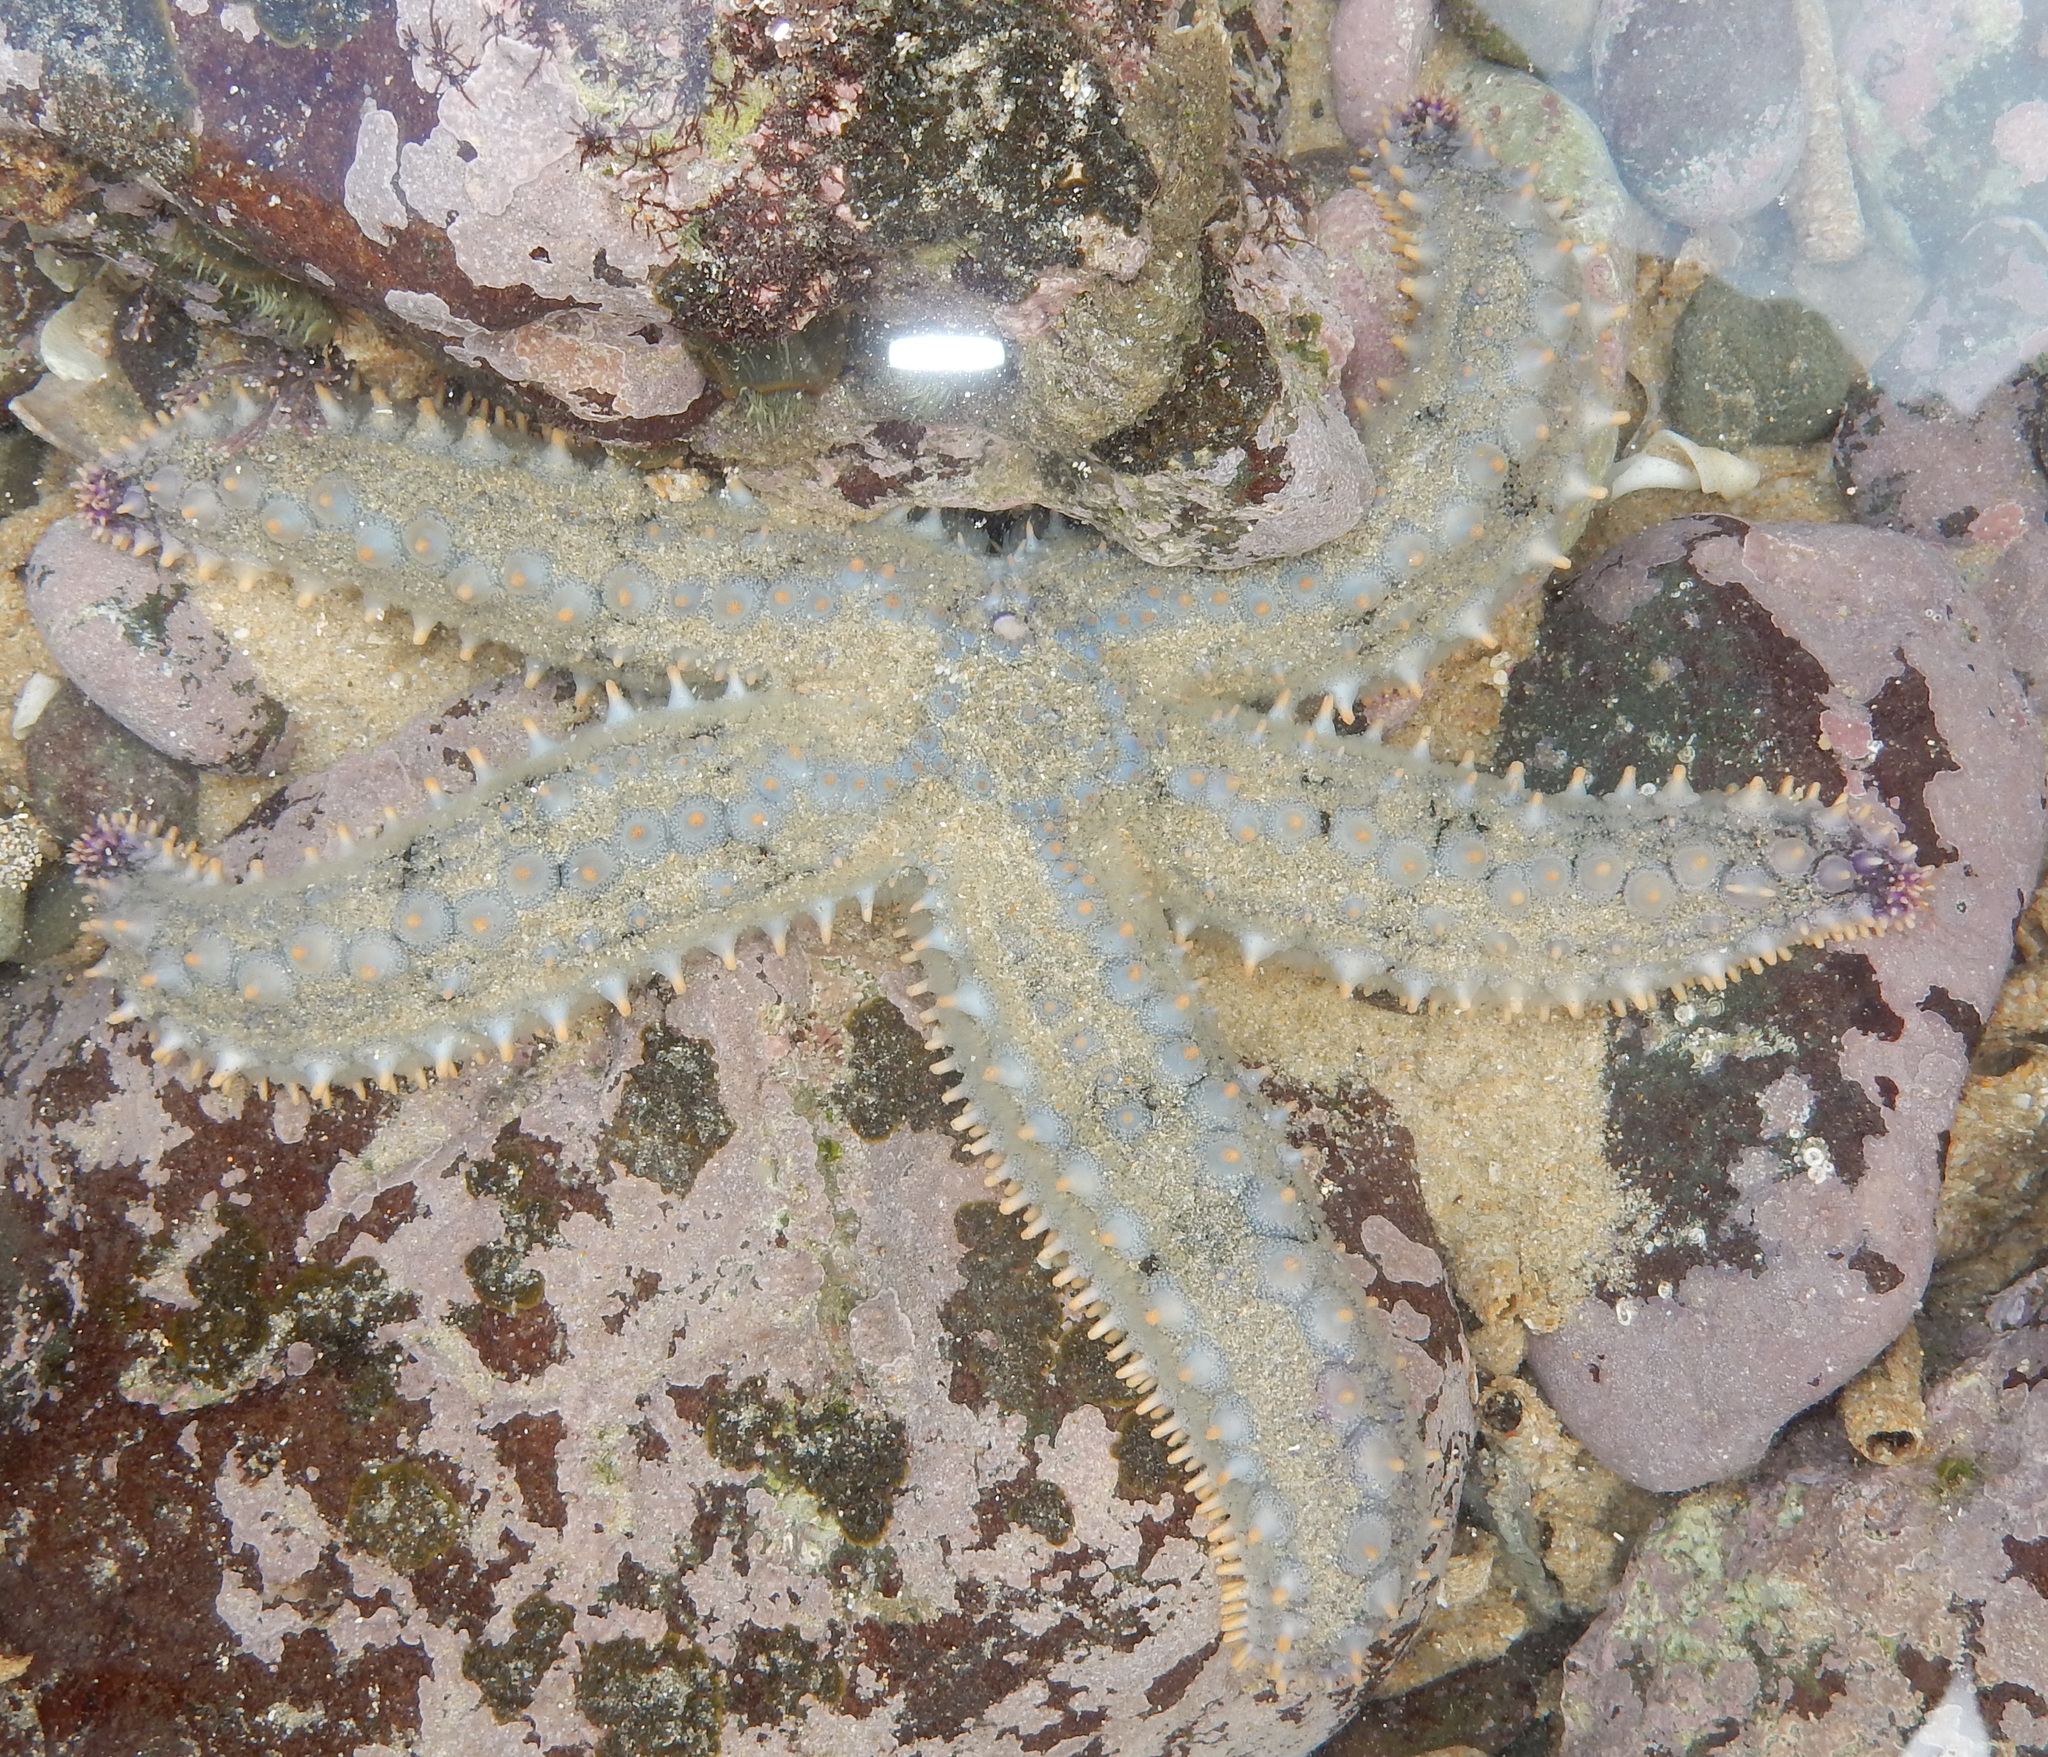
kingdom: Animalia
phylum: Echinodermata
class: Asteroidea
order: Forcipulatida
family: Asteriidae
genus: Marthasterias
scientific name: Marthasterias africana
